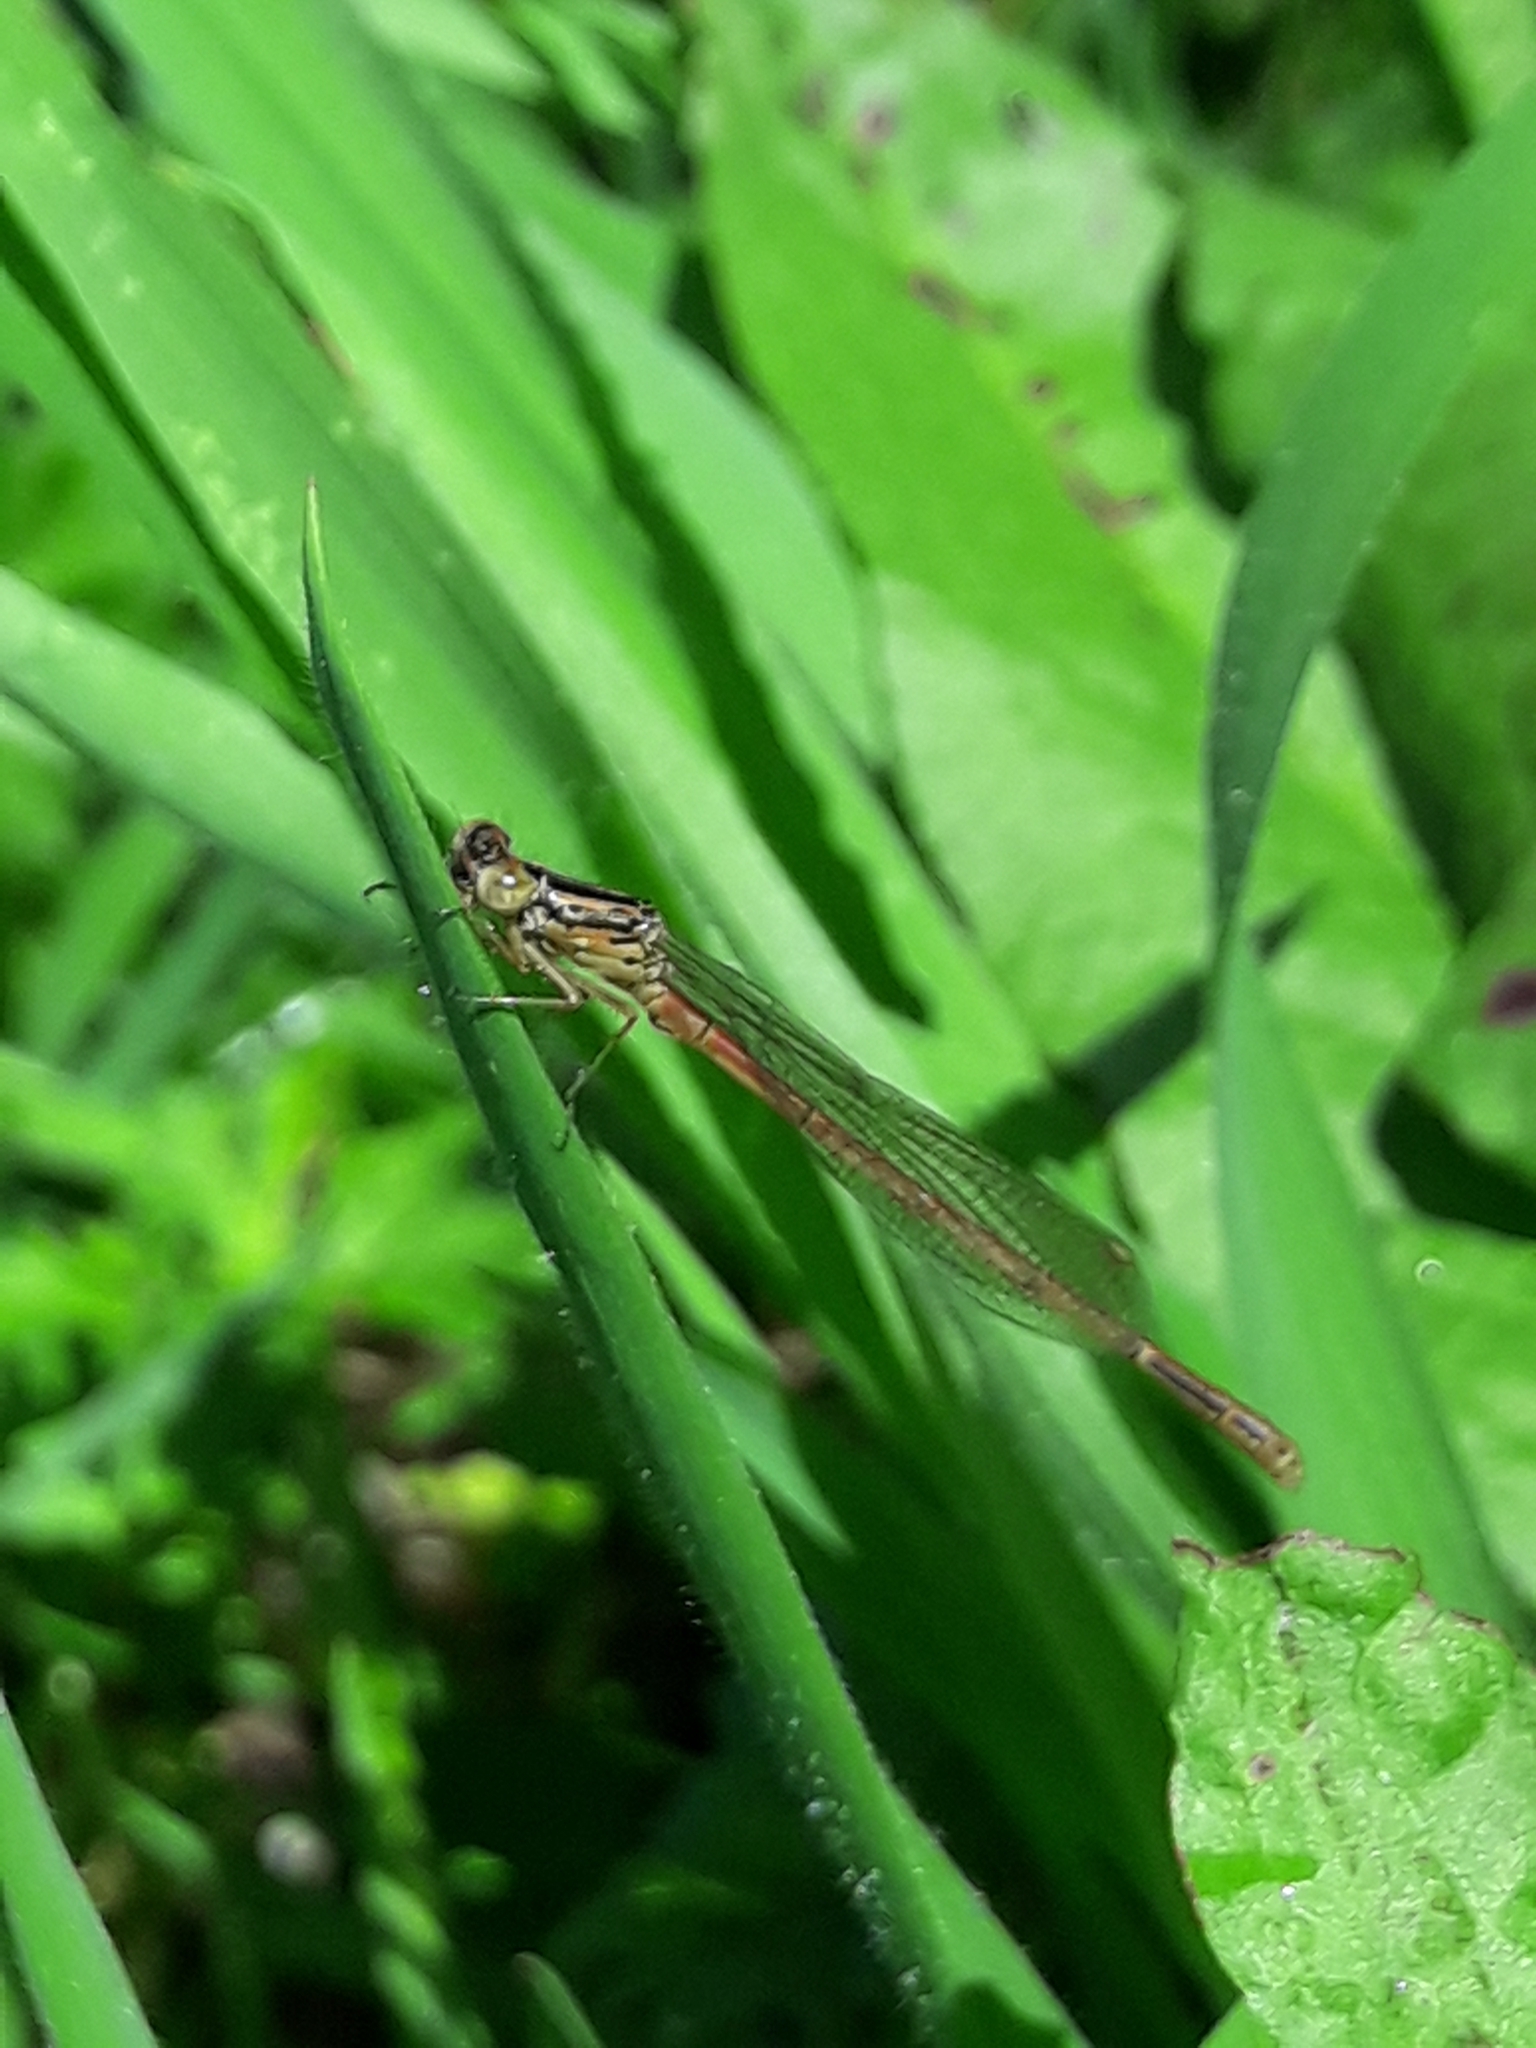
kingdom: Animalia
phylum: Arthropoda
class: Insecta
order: Odonata
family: Coenagrionidae
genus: Xanthocnemis
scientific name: Xanthocnemis zealandica
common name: Common redcoat damselfly
